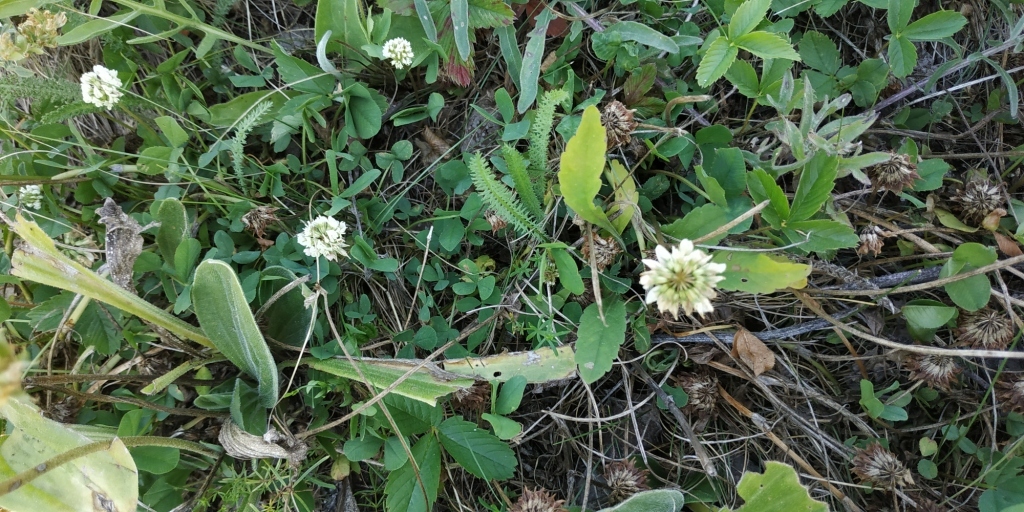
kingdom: Plantae
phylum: Tracheophyta
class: Magnoliopsida
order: Fabales
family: Fabaceae
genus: Trifolium
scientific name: Trifolium repens
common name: White clover
